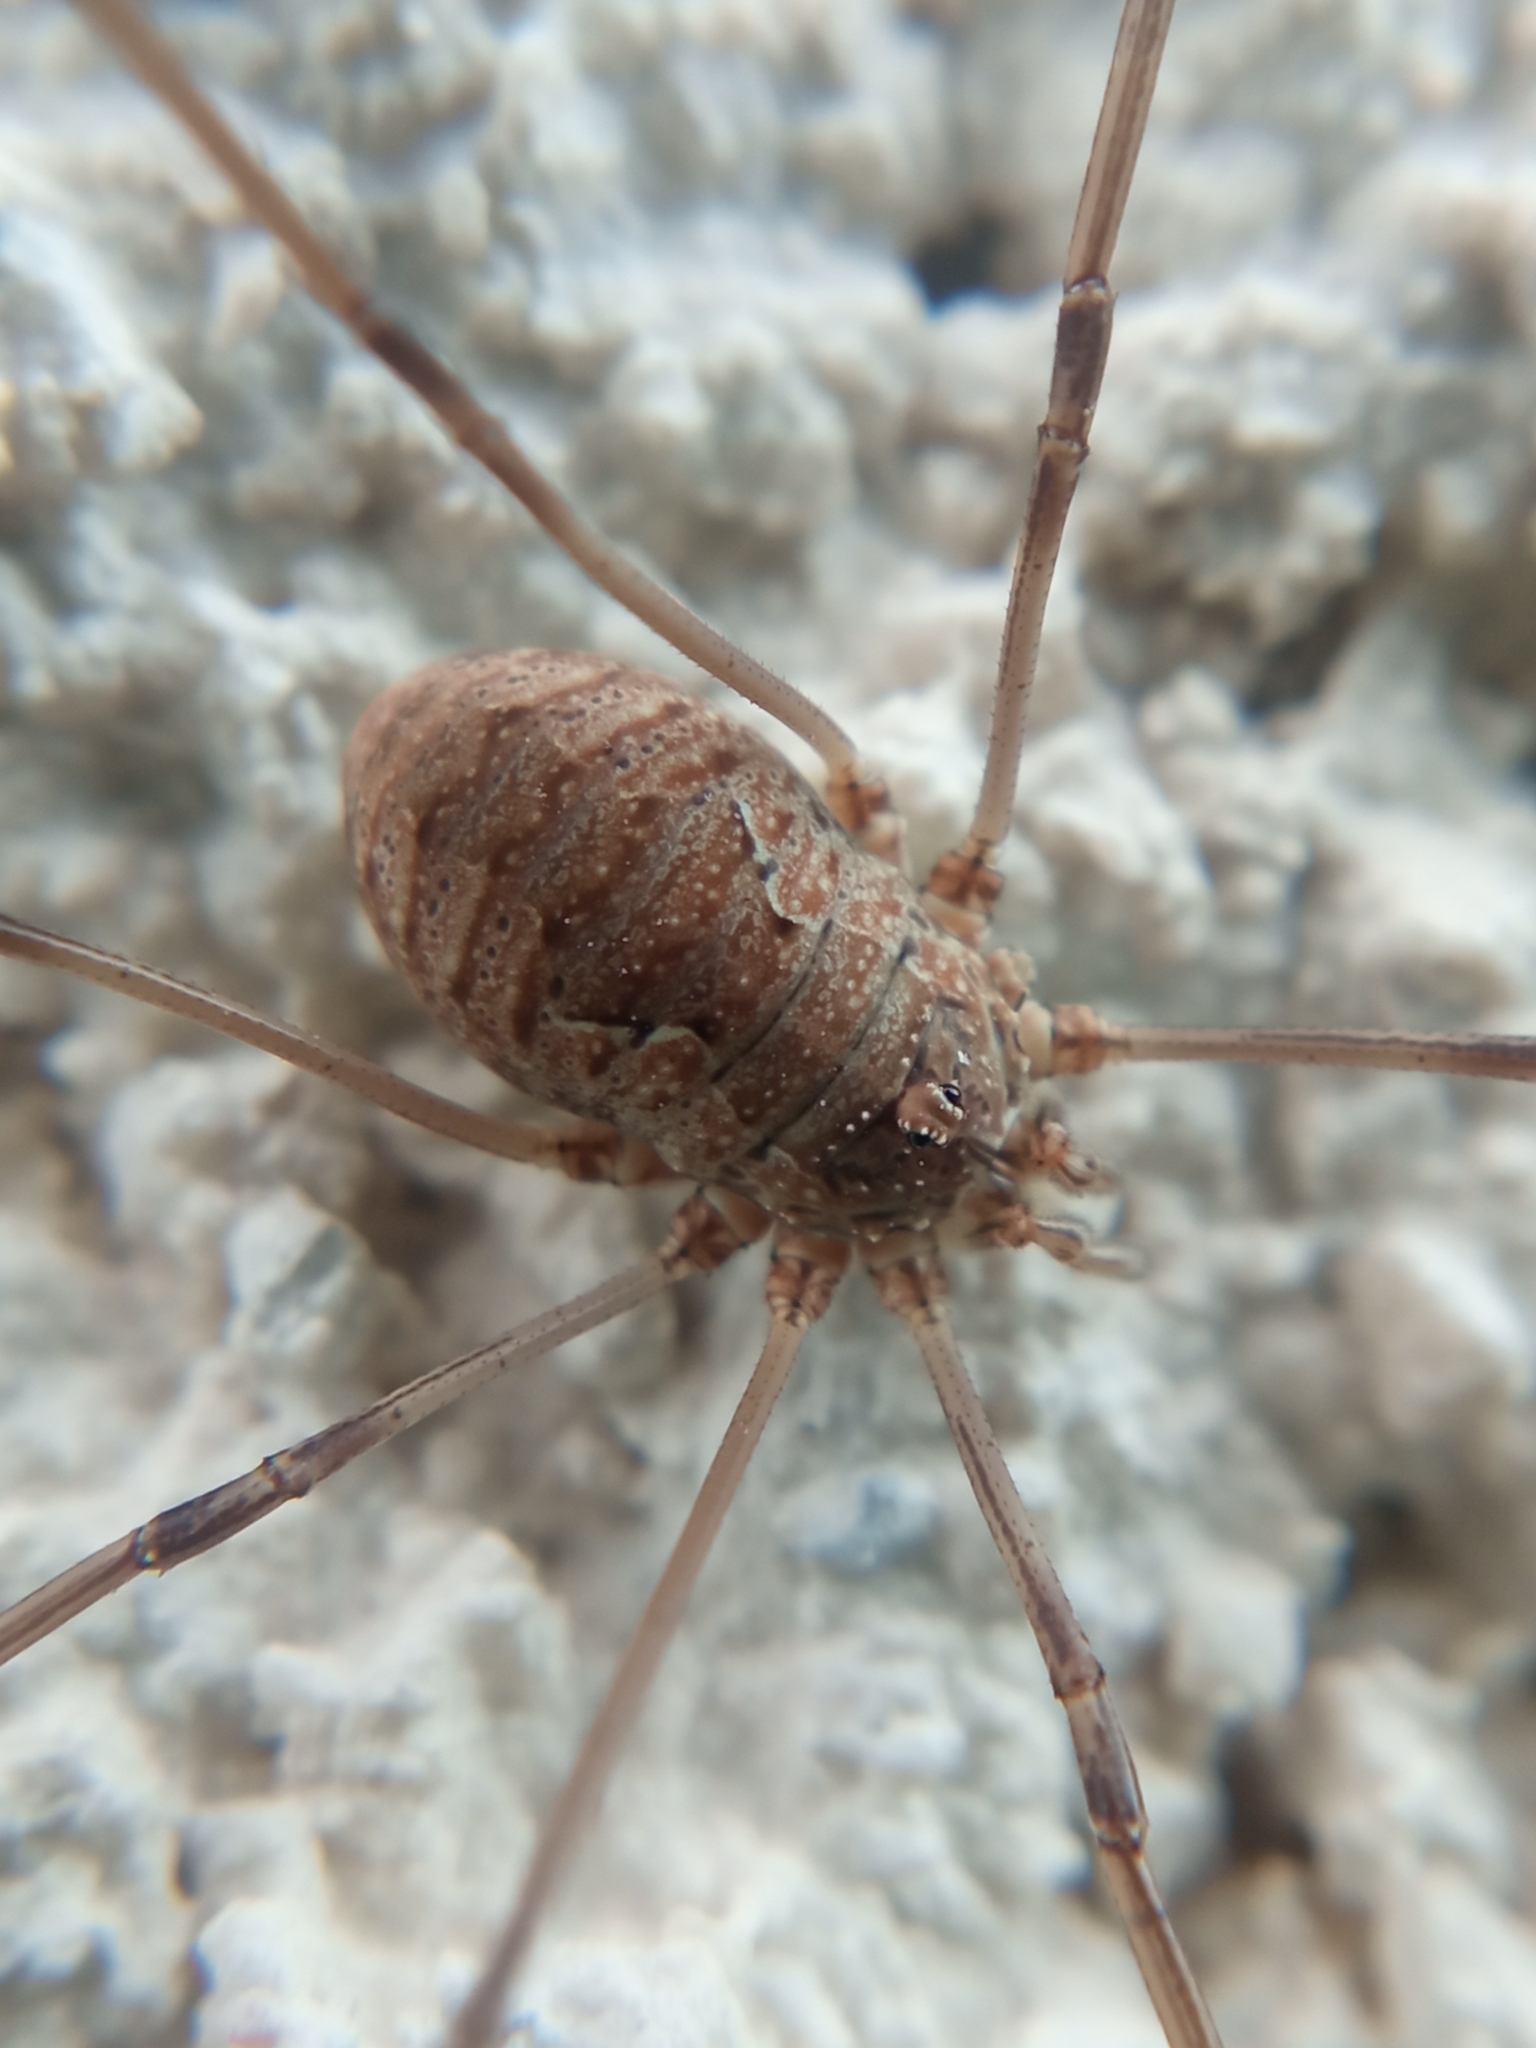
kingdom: Animalia
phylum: Arthropoda
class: Arachnida
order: Opiliones
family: Phalangiidae
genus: Phalangium
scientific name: Phalangium opilio
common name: Daddy longleg
